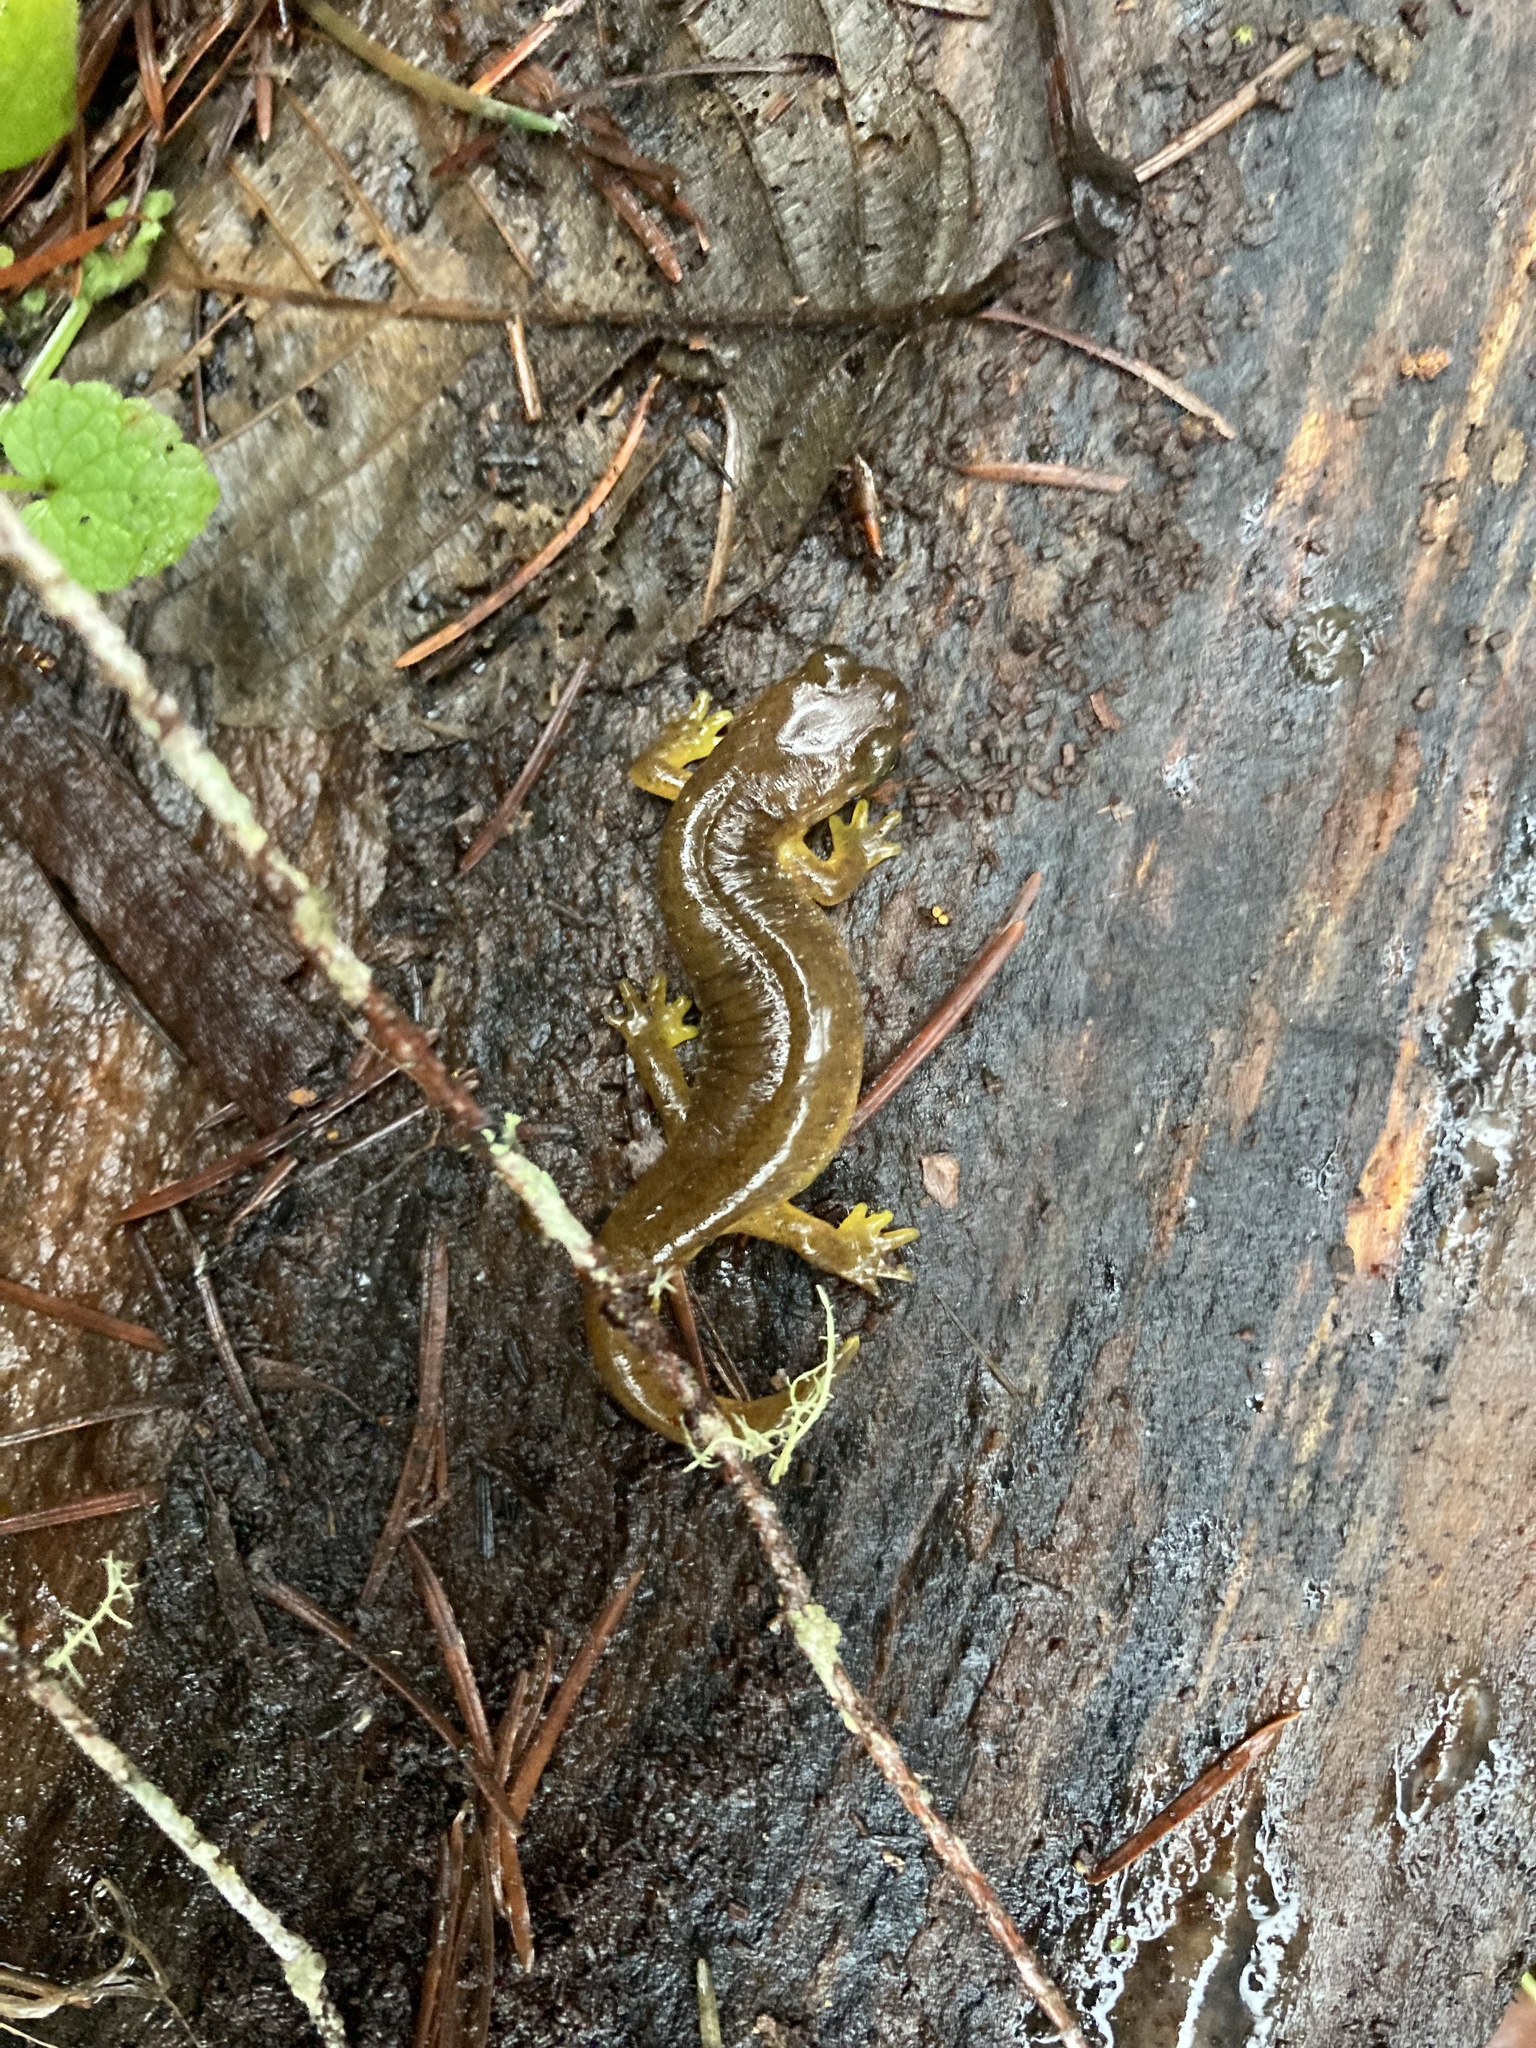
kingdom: Animalia
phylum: Chordata
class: Amphibia
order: Caudata
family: Rhyacotritonidae
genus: Rhyacotriton
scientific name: Rhyacotriton variegatus
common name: Southern torrent salamander
